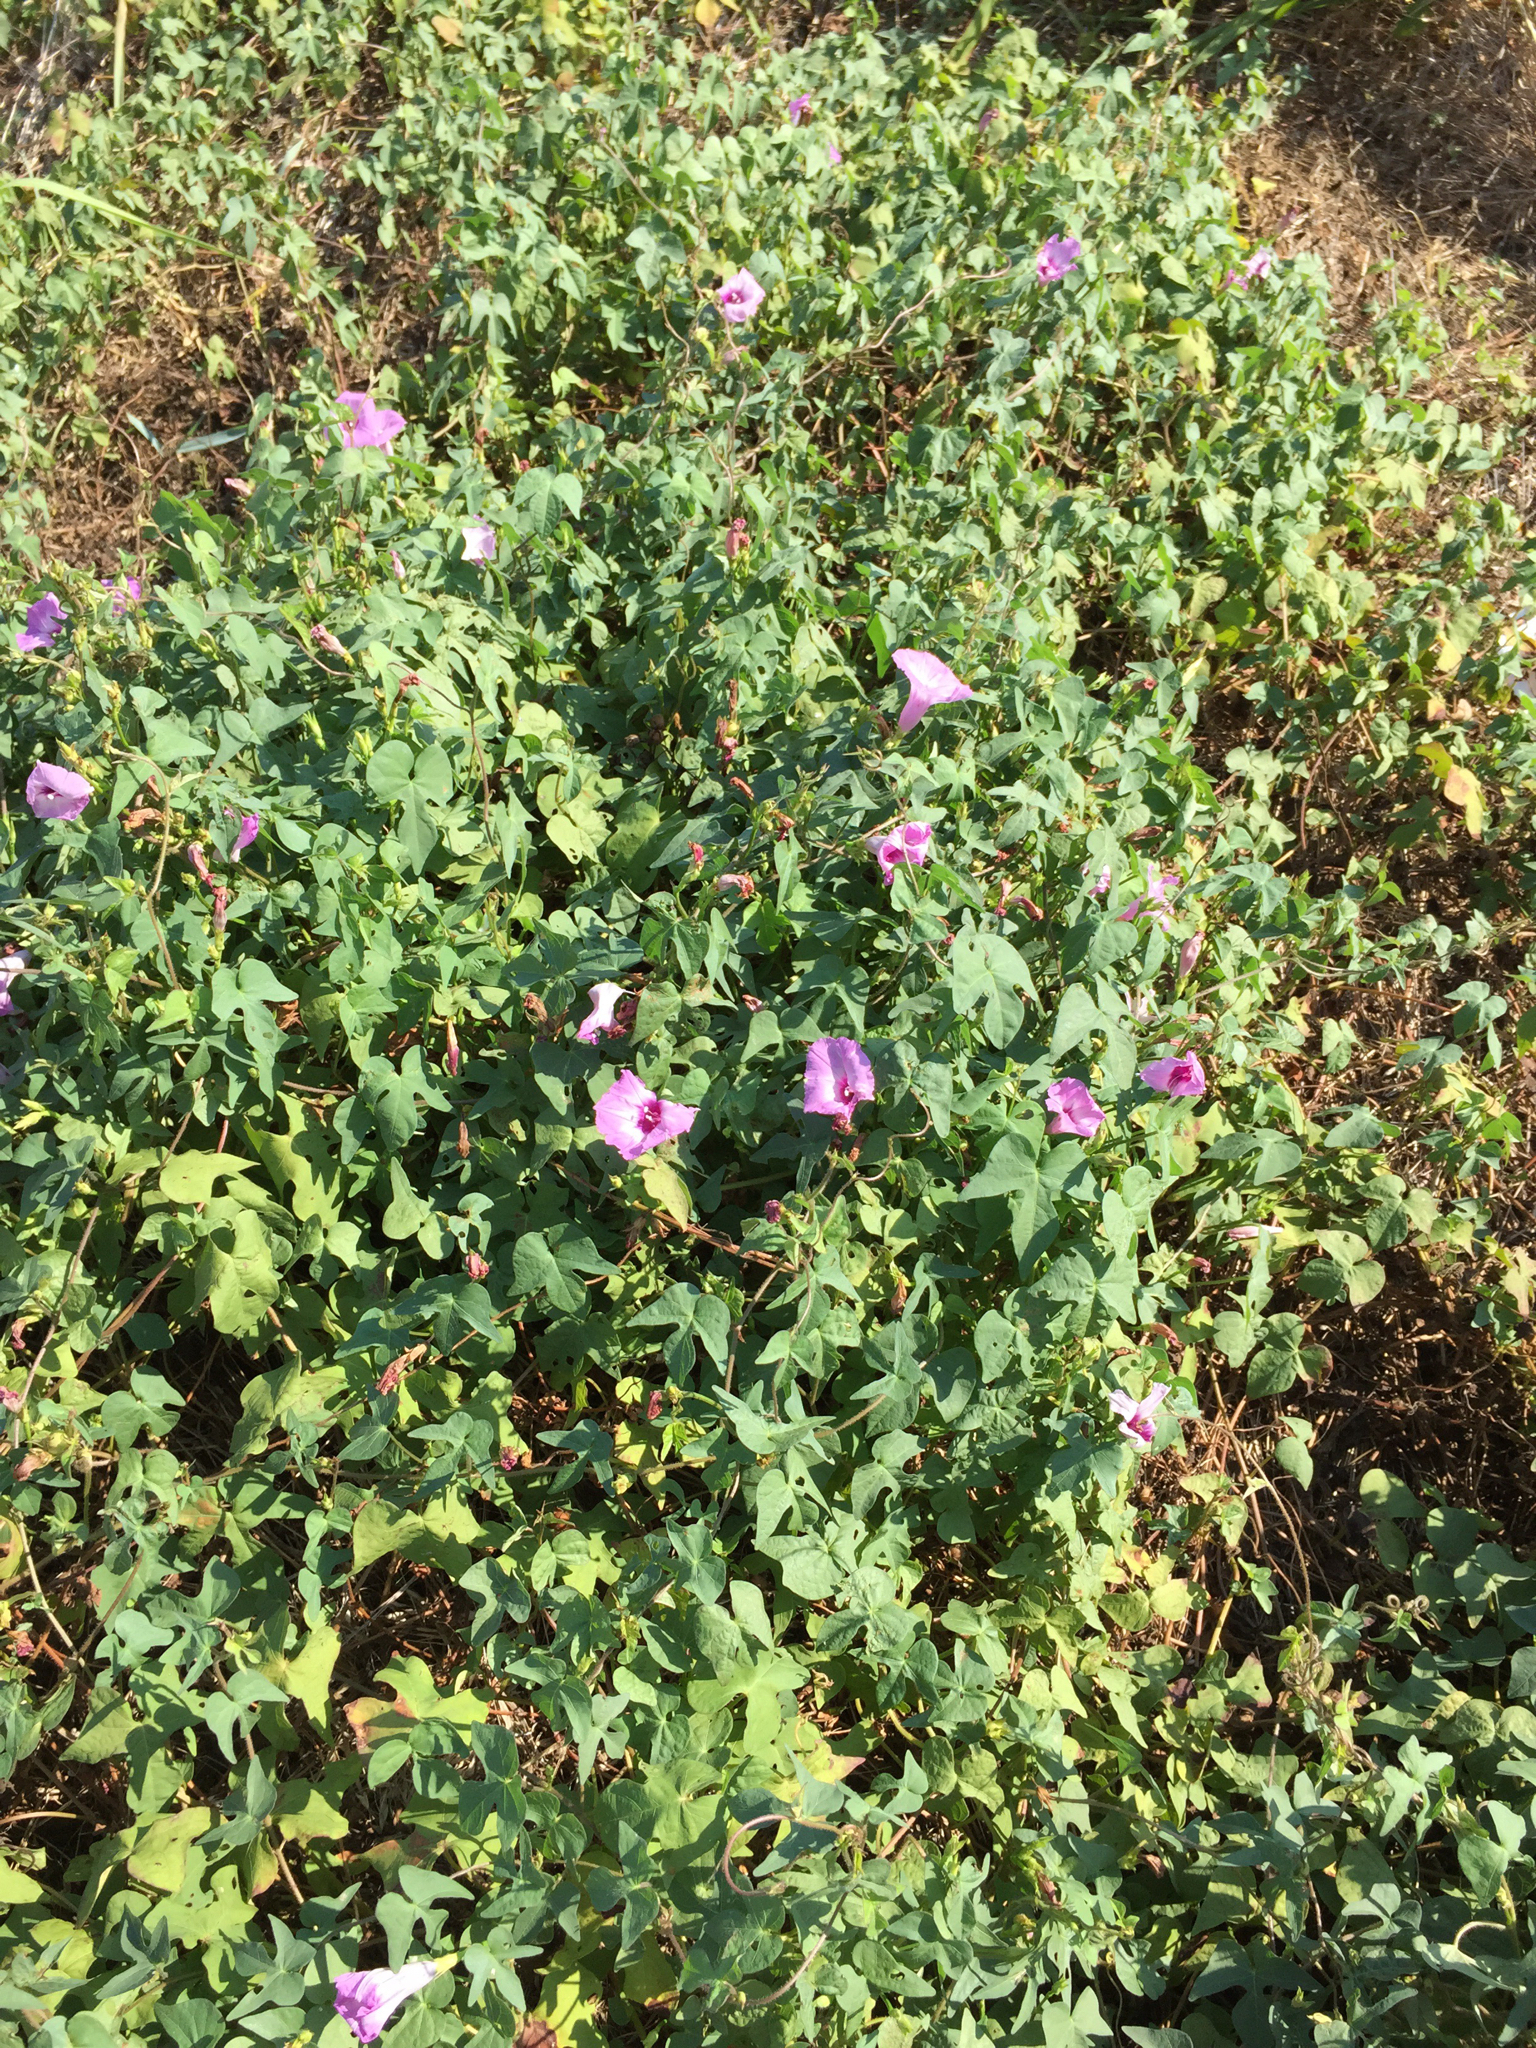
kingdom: Plantae
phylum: Tracheophyta
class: Magnoliopsida
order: Solanales
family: Convolvulaceae
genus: Ipomoea
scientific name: Ipomoea cordatotriloba
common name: Cotton morning glory
